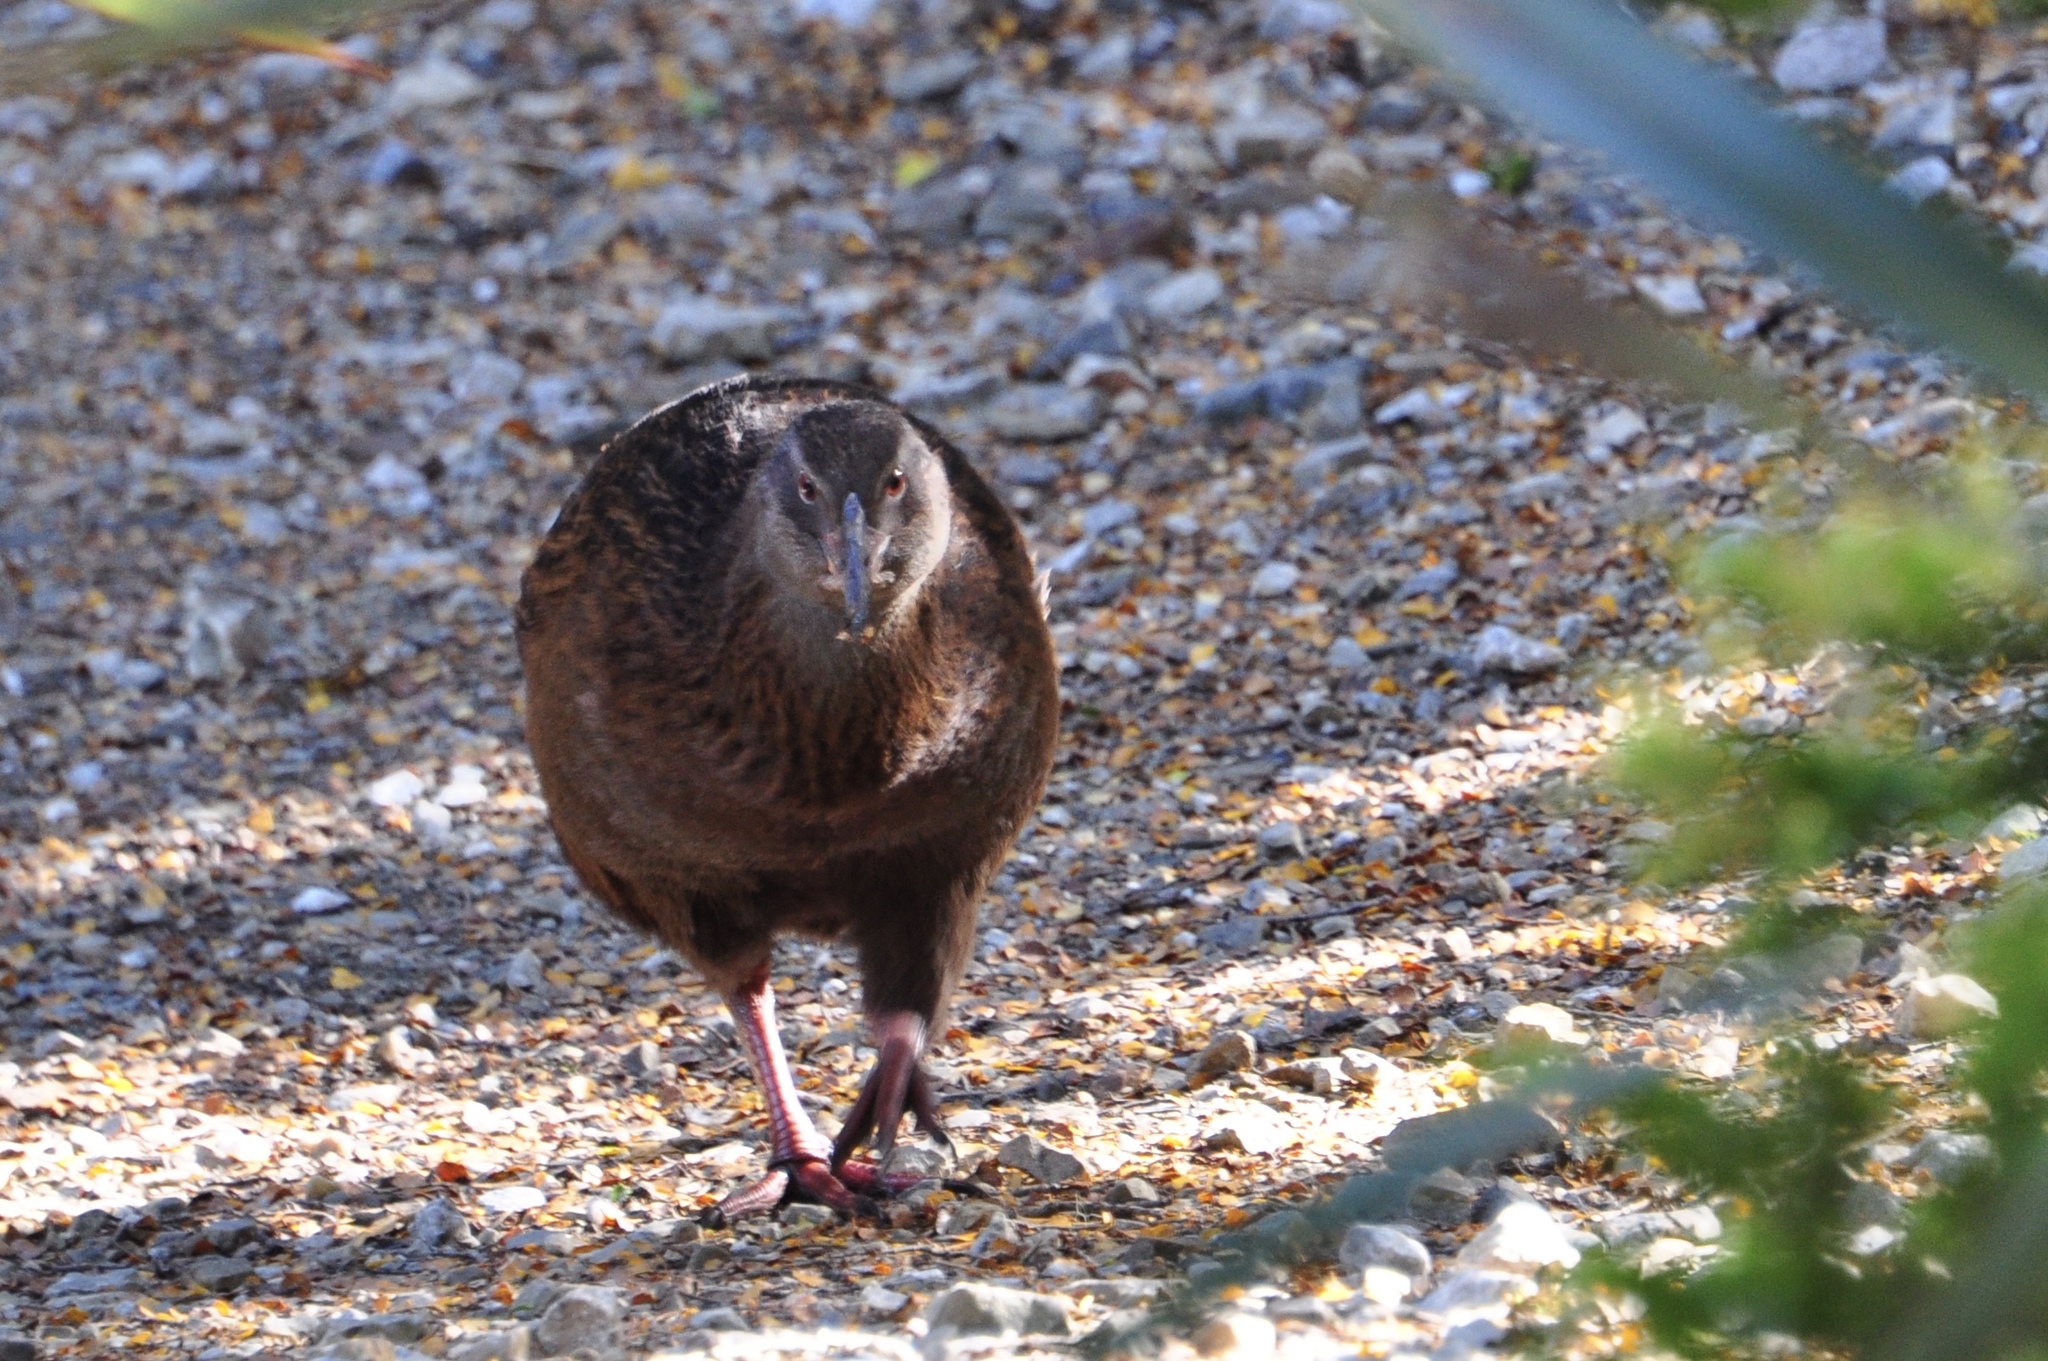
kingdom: Animalia
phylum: Chordata
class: Aves
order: Gruiformes
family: Rallidae
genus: Gallirallus
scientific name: Gallirallus australis
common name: Weka
